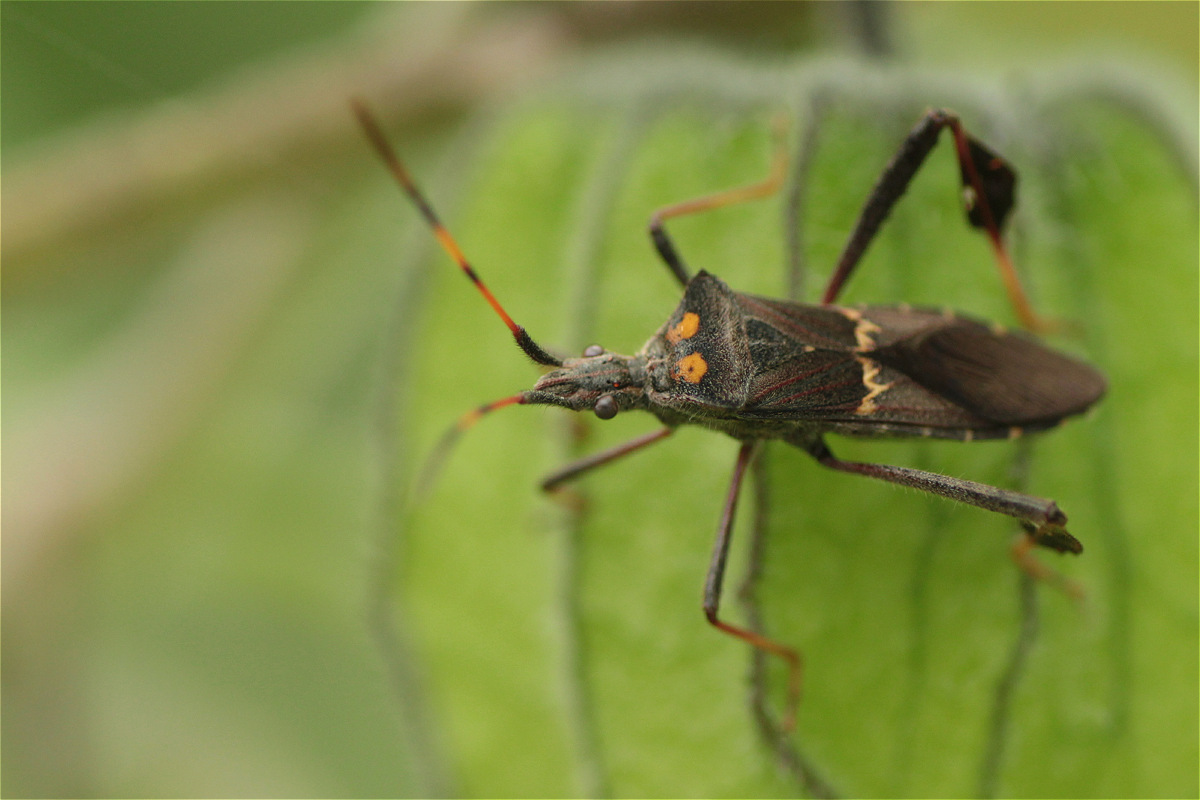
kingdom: Animalia
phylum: Arthropoda
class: Insecta
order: Hemiptera
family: Coreidae
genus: Leptoglossus
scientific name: Leptoglossus zonatus
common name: Large-legged bug
